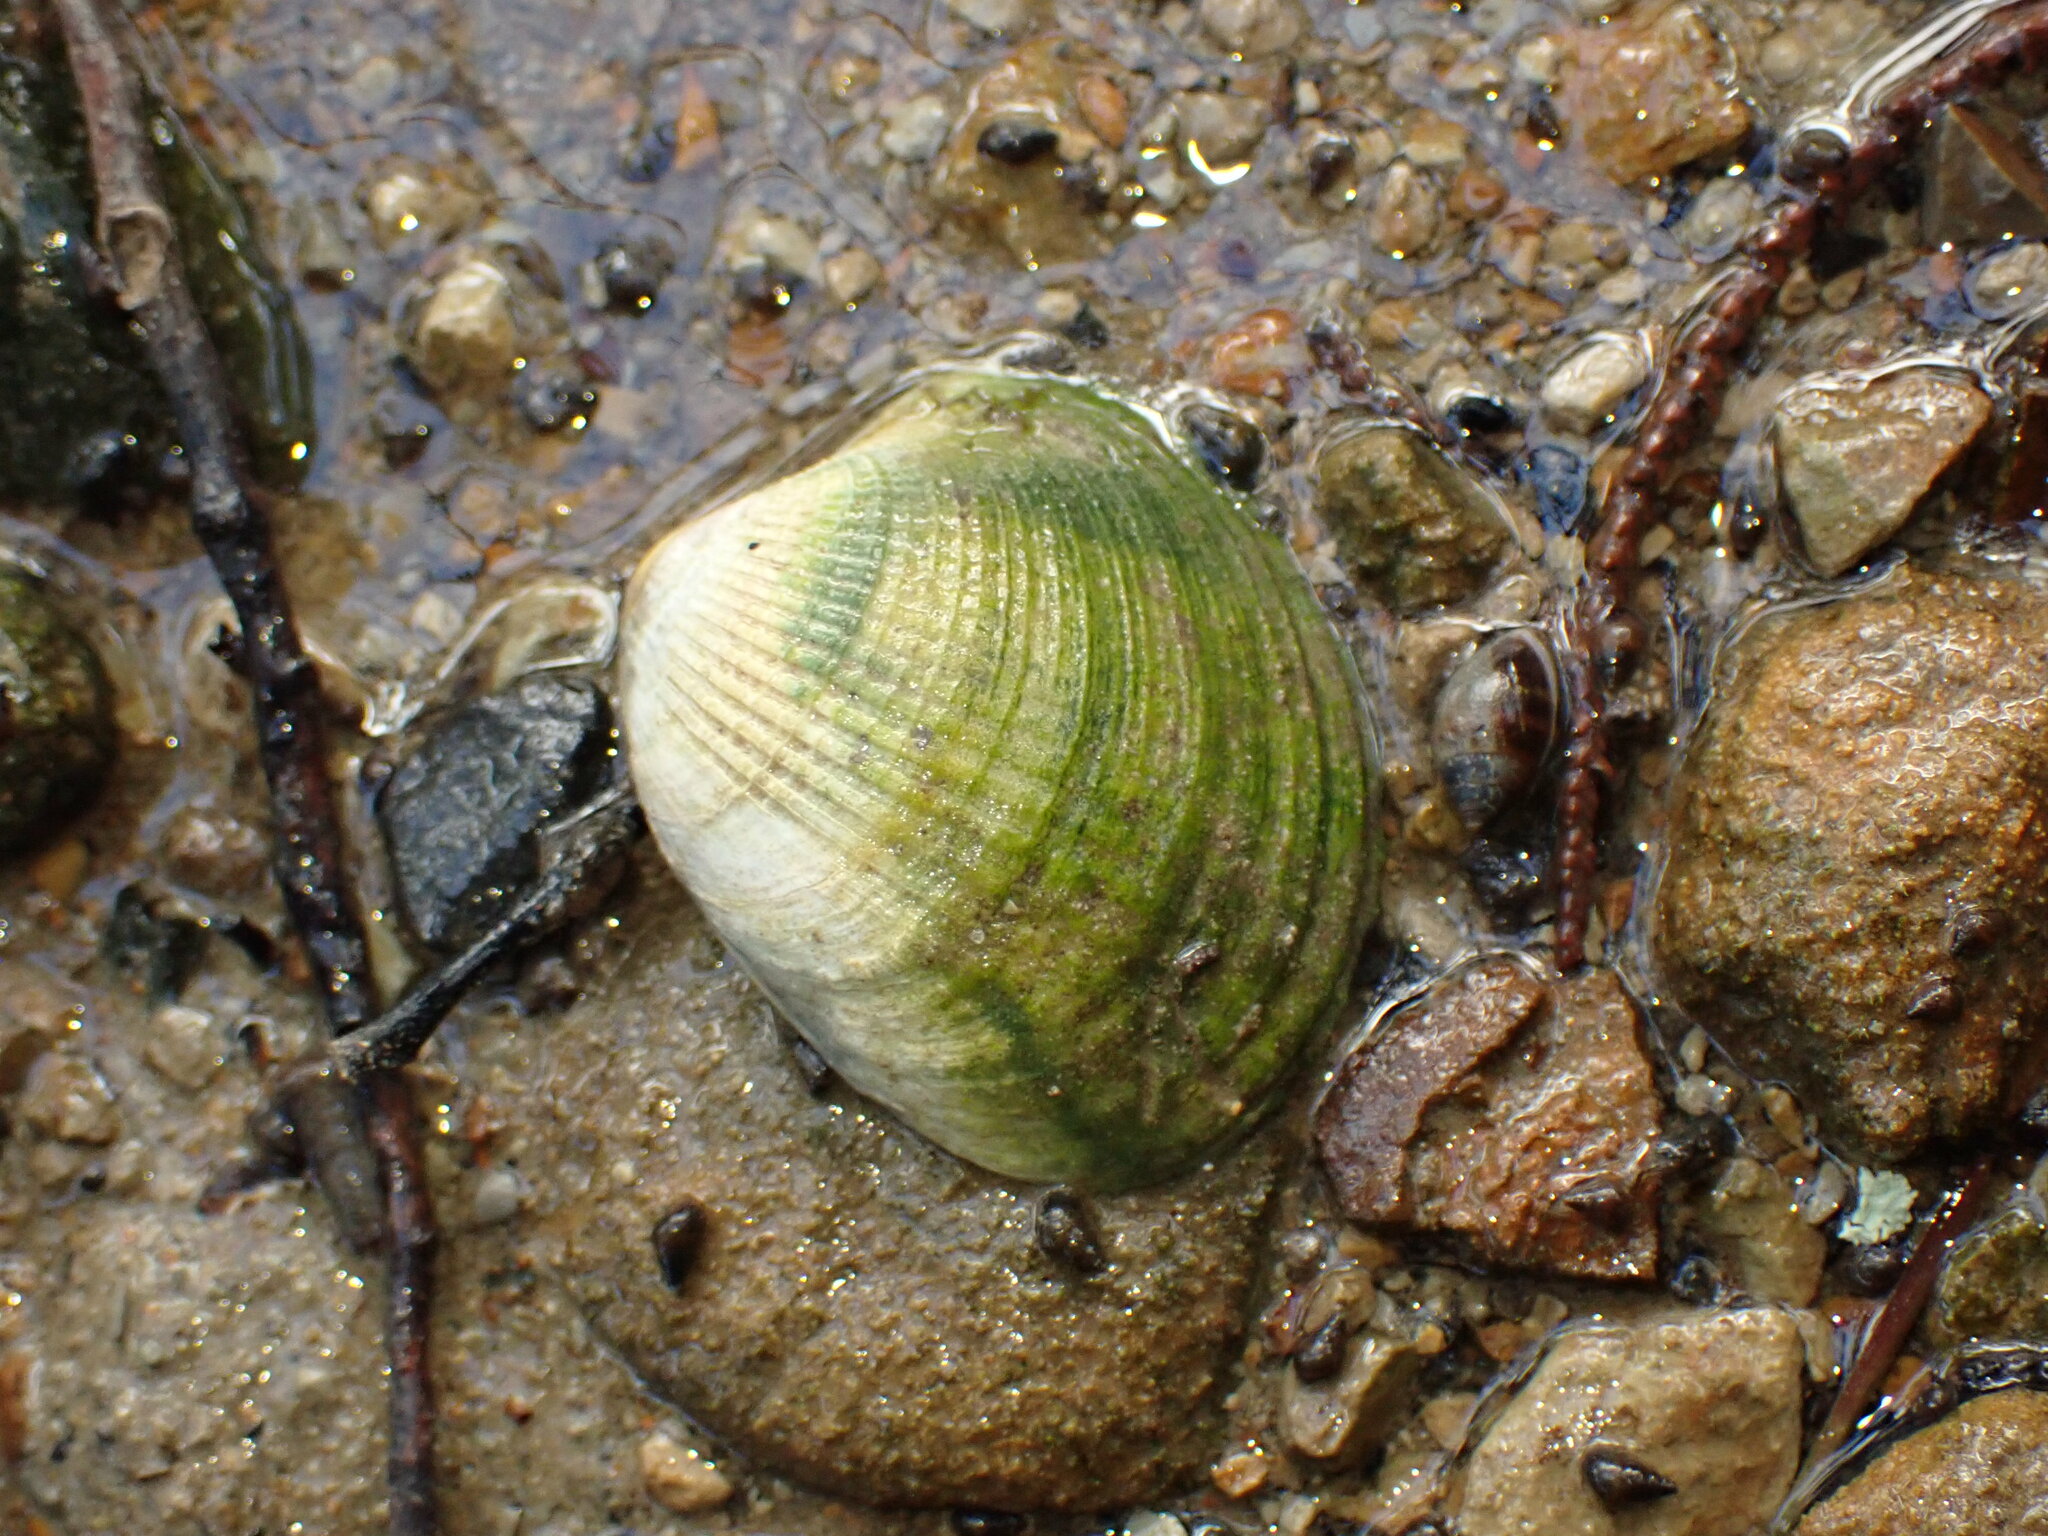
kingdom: Animalia
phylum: Mollusca
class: Bivalvia
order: Venerida
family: Veneridae
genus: Austrovenus
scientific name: Austrovenus stutchburyi
